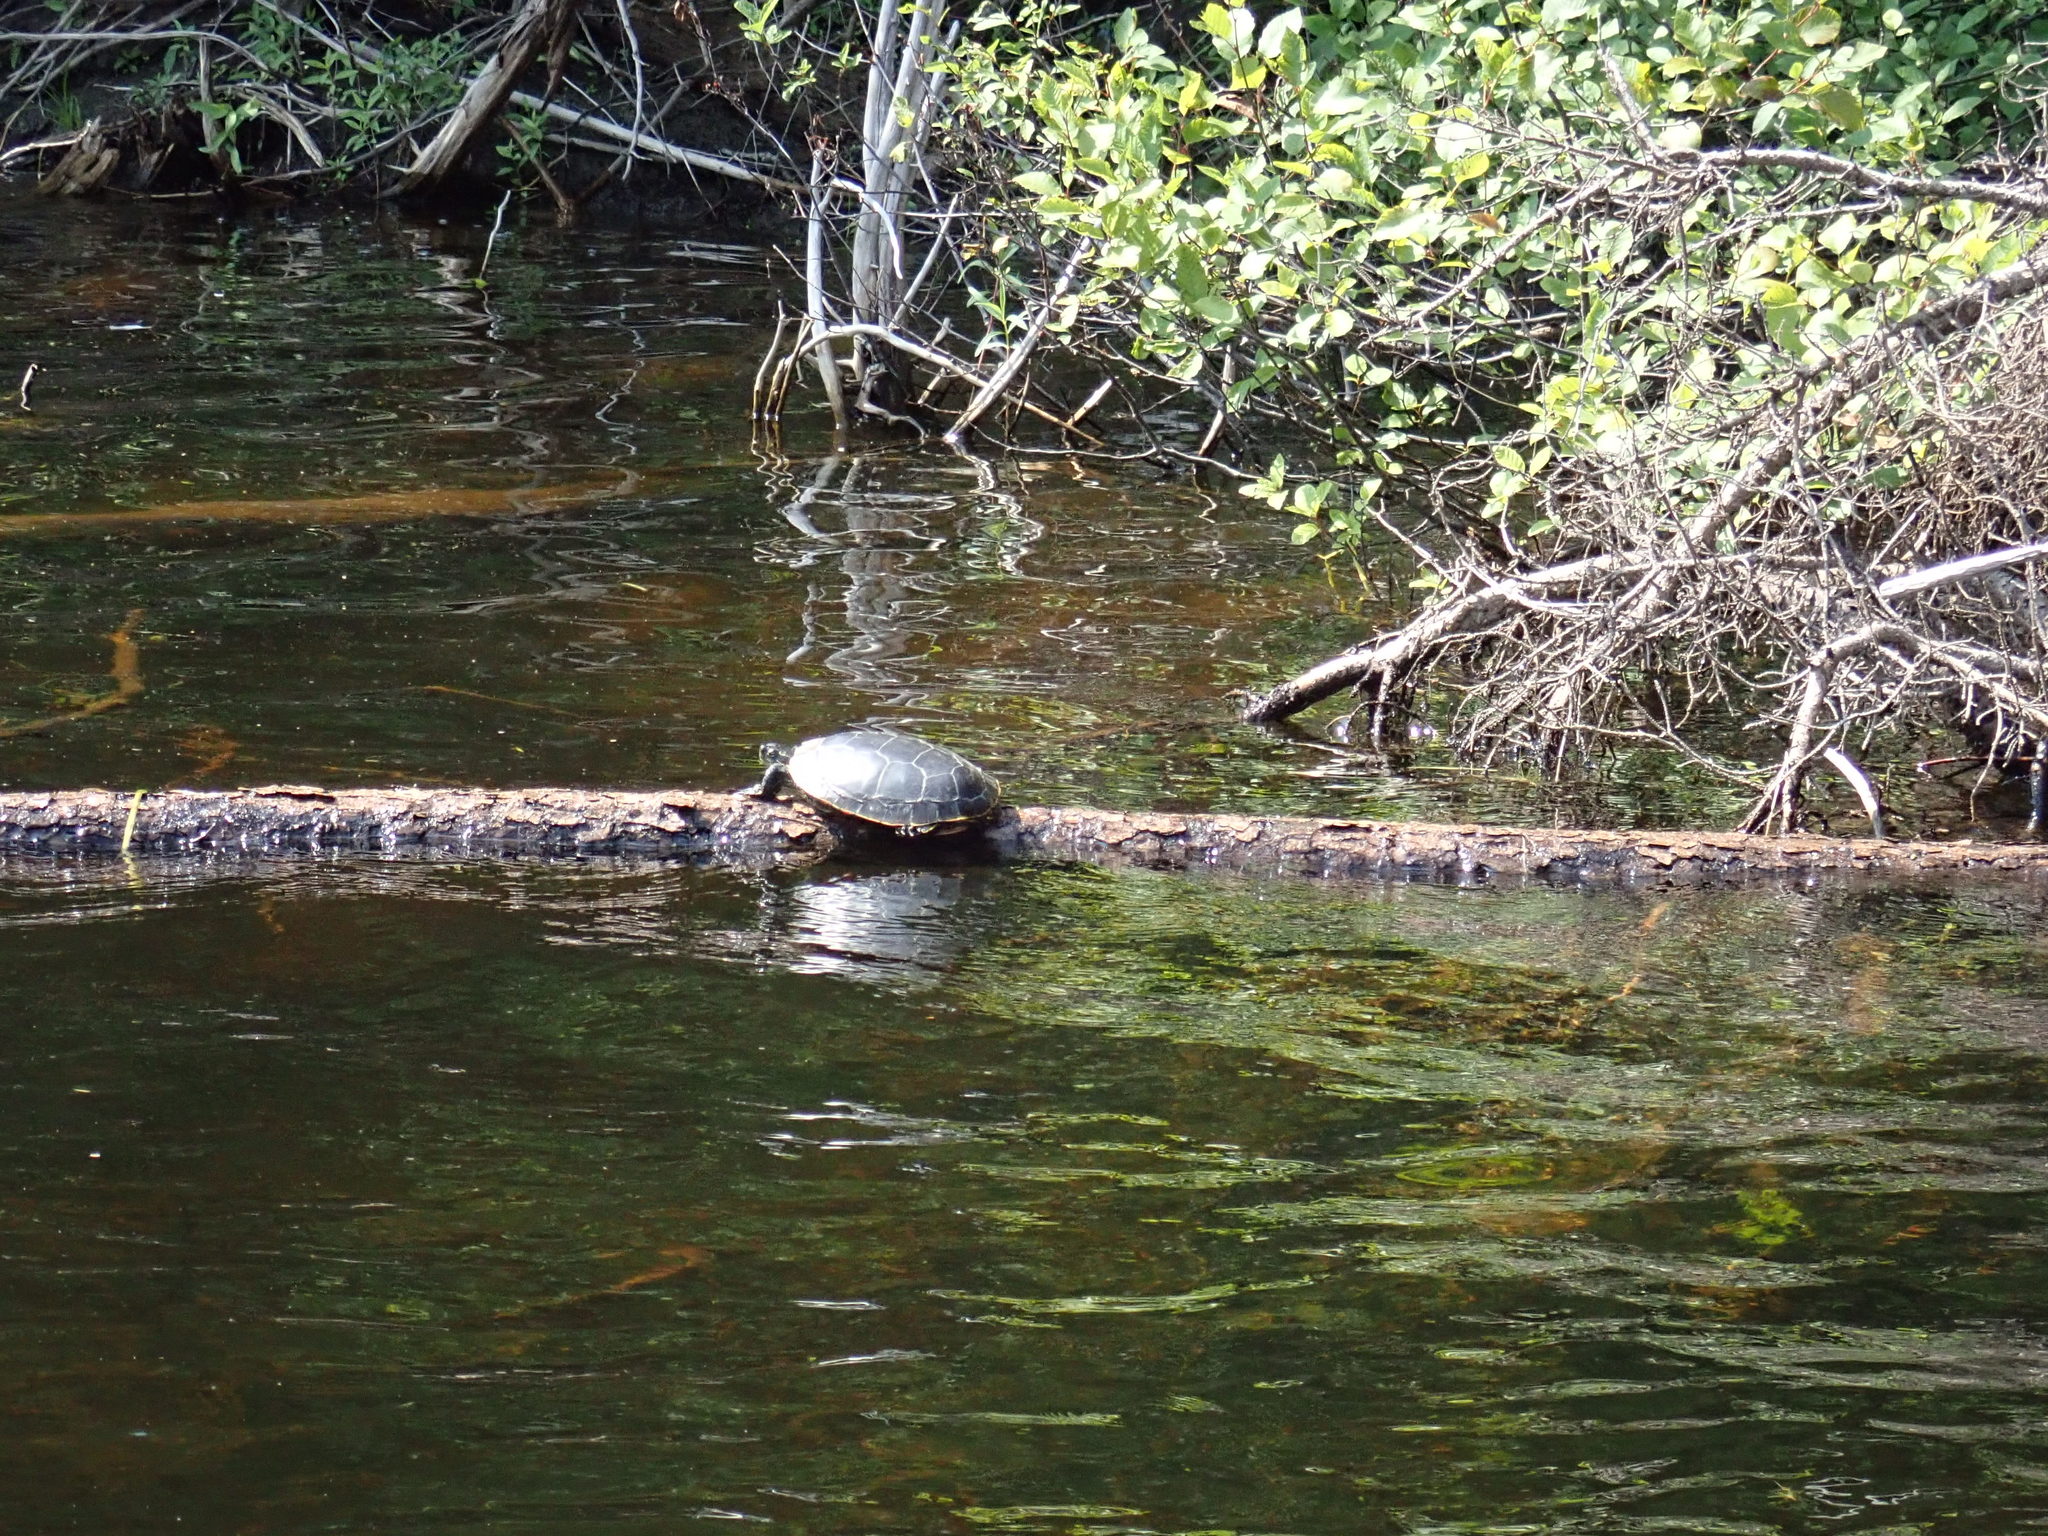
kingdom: Animalia
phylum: Chordata
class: Testudines
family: Emydidae
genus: Chrysemys
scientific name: Chrysemys picta
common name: Painted turtle
